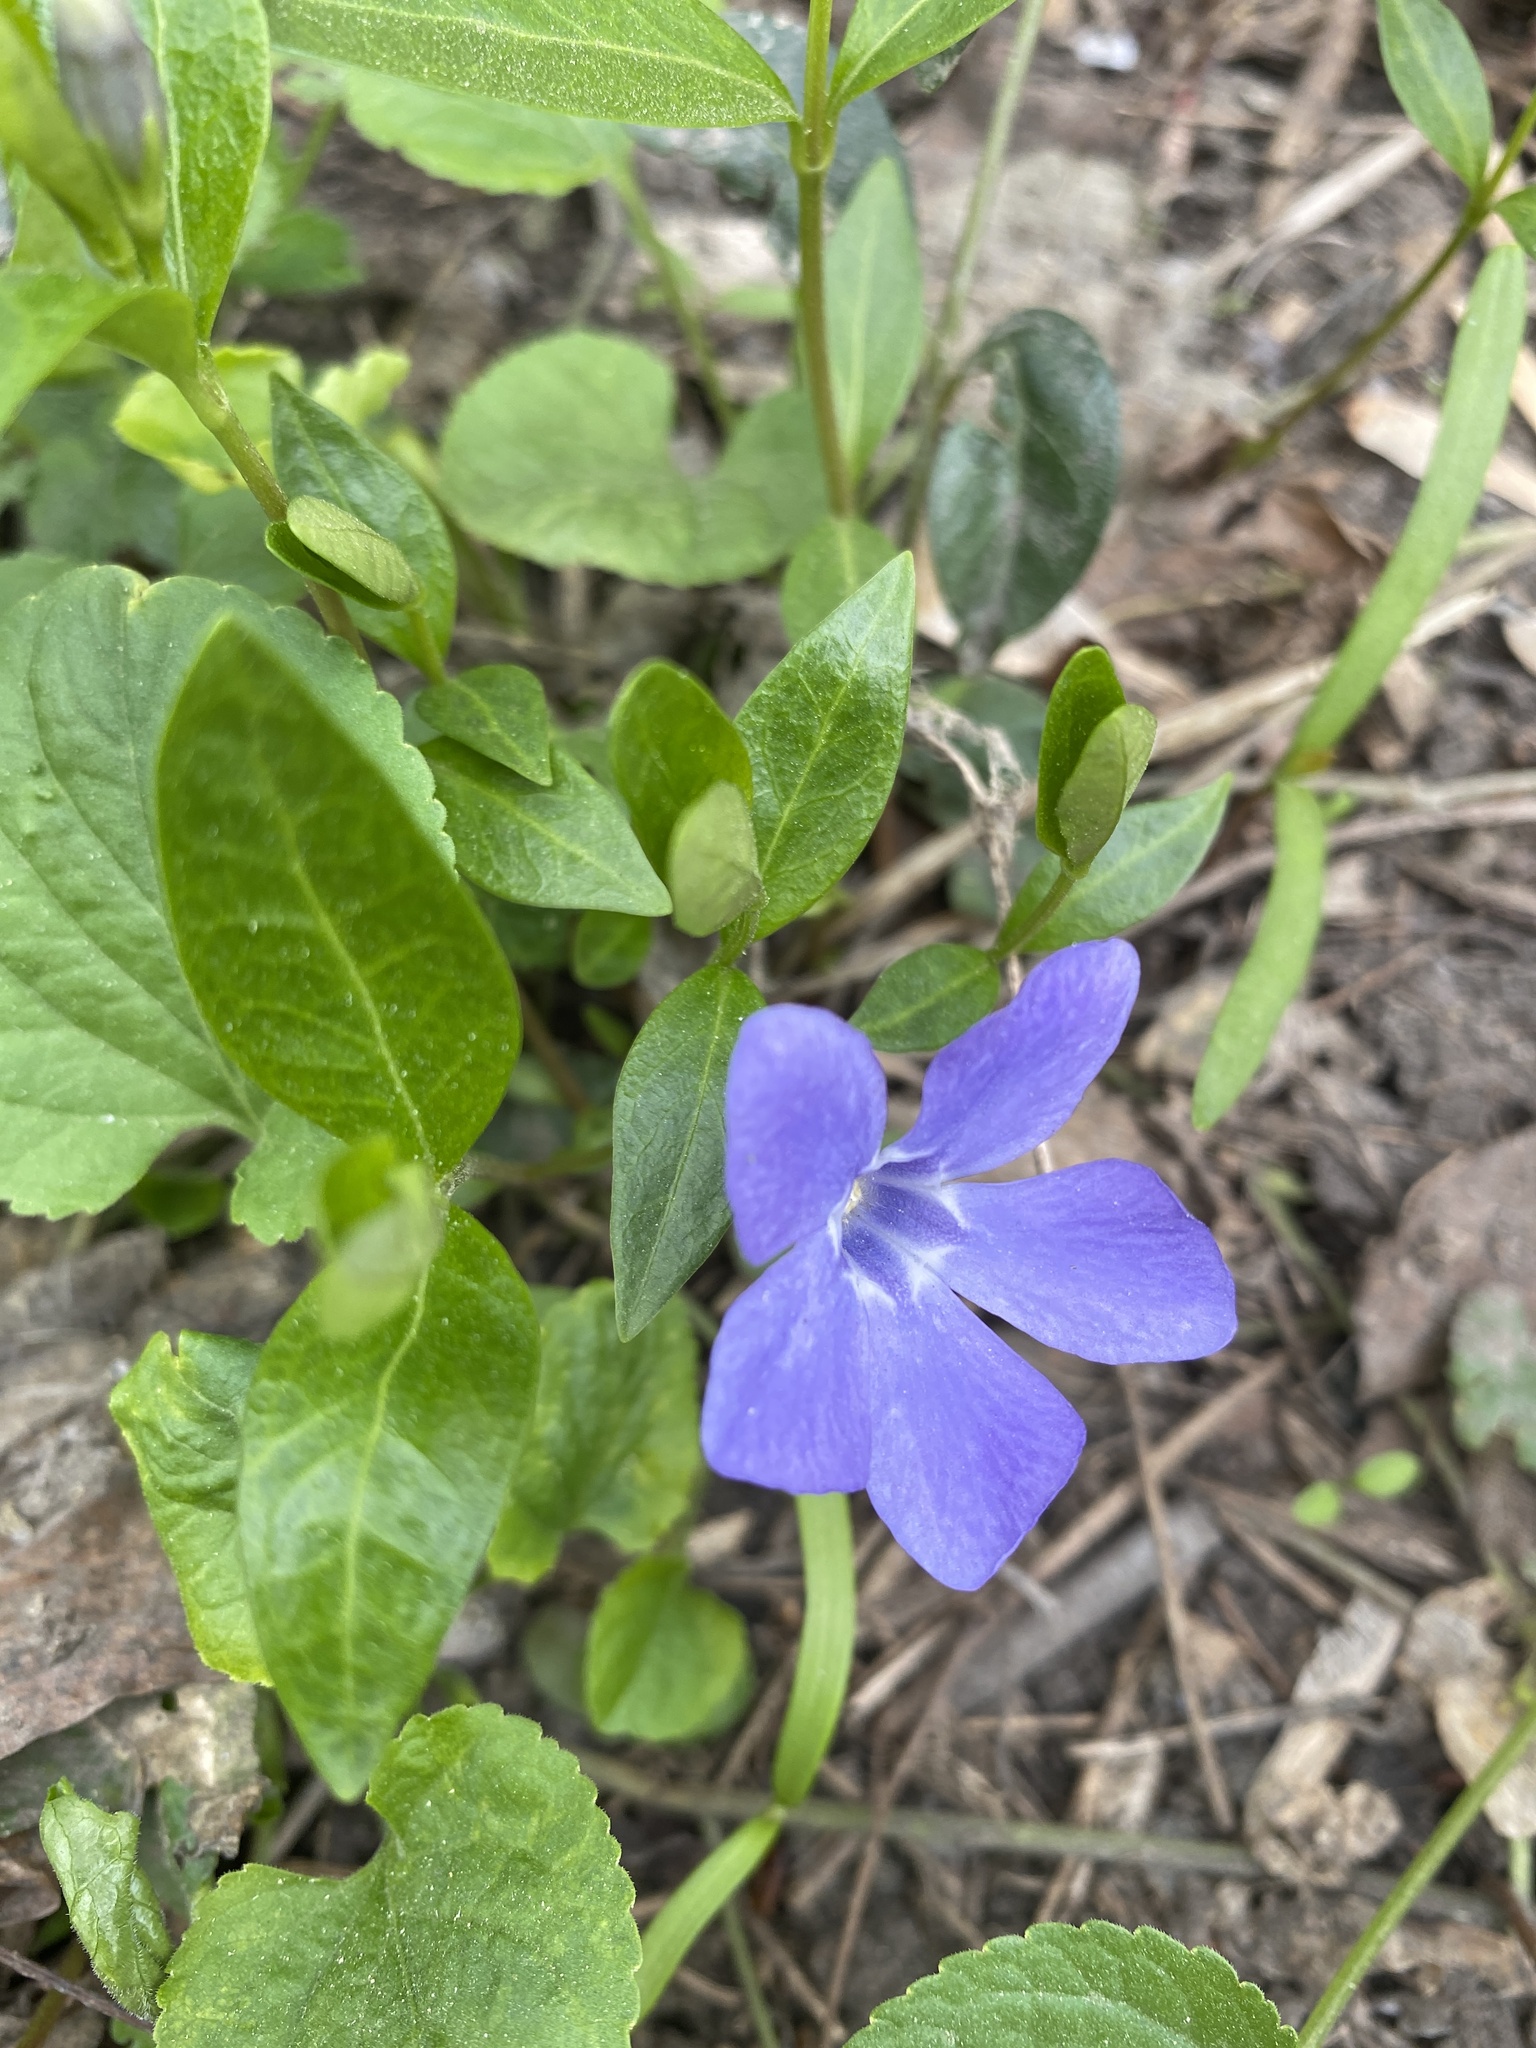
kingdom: Plantae
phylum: Tracheophyta
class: Magnoliopsida
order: Gentianales
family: Apocynaceae
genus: Vinca
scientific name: Vinca minor
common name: Lesser periwinkle
